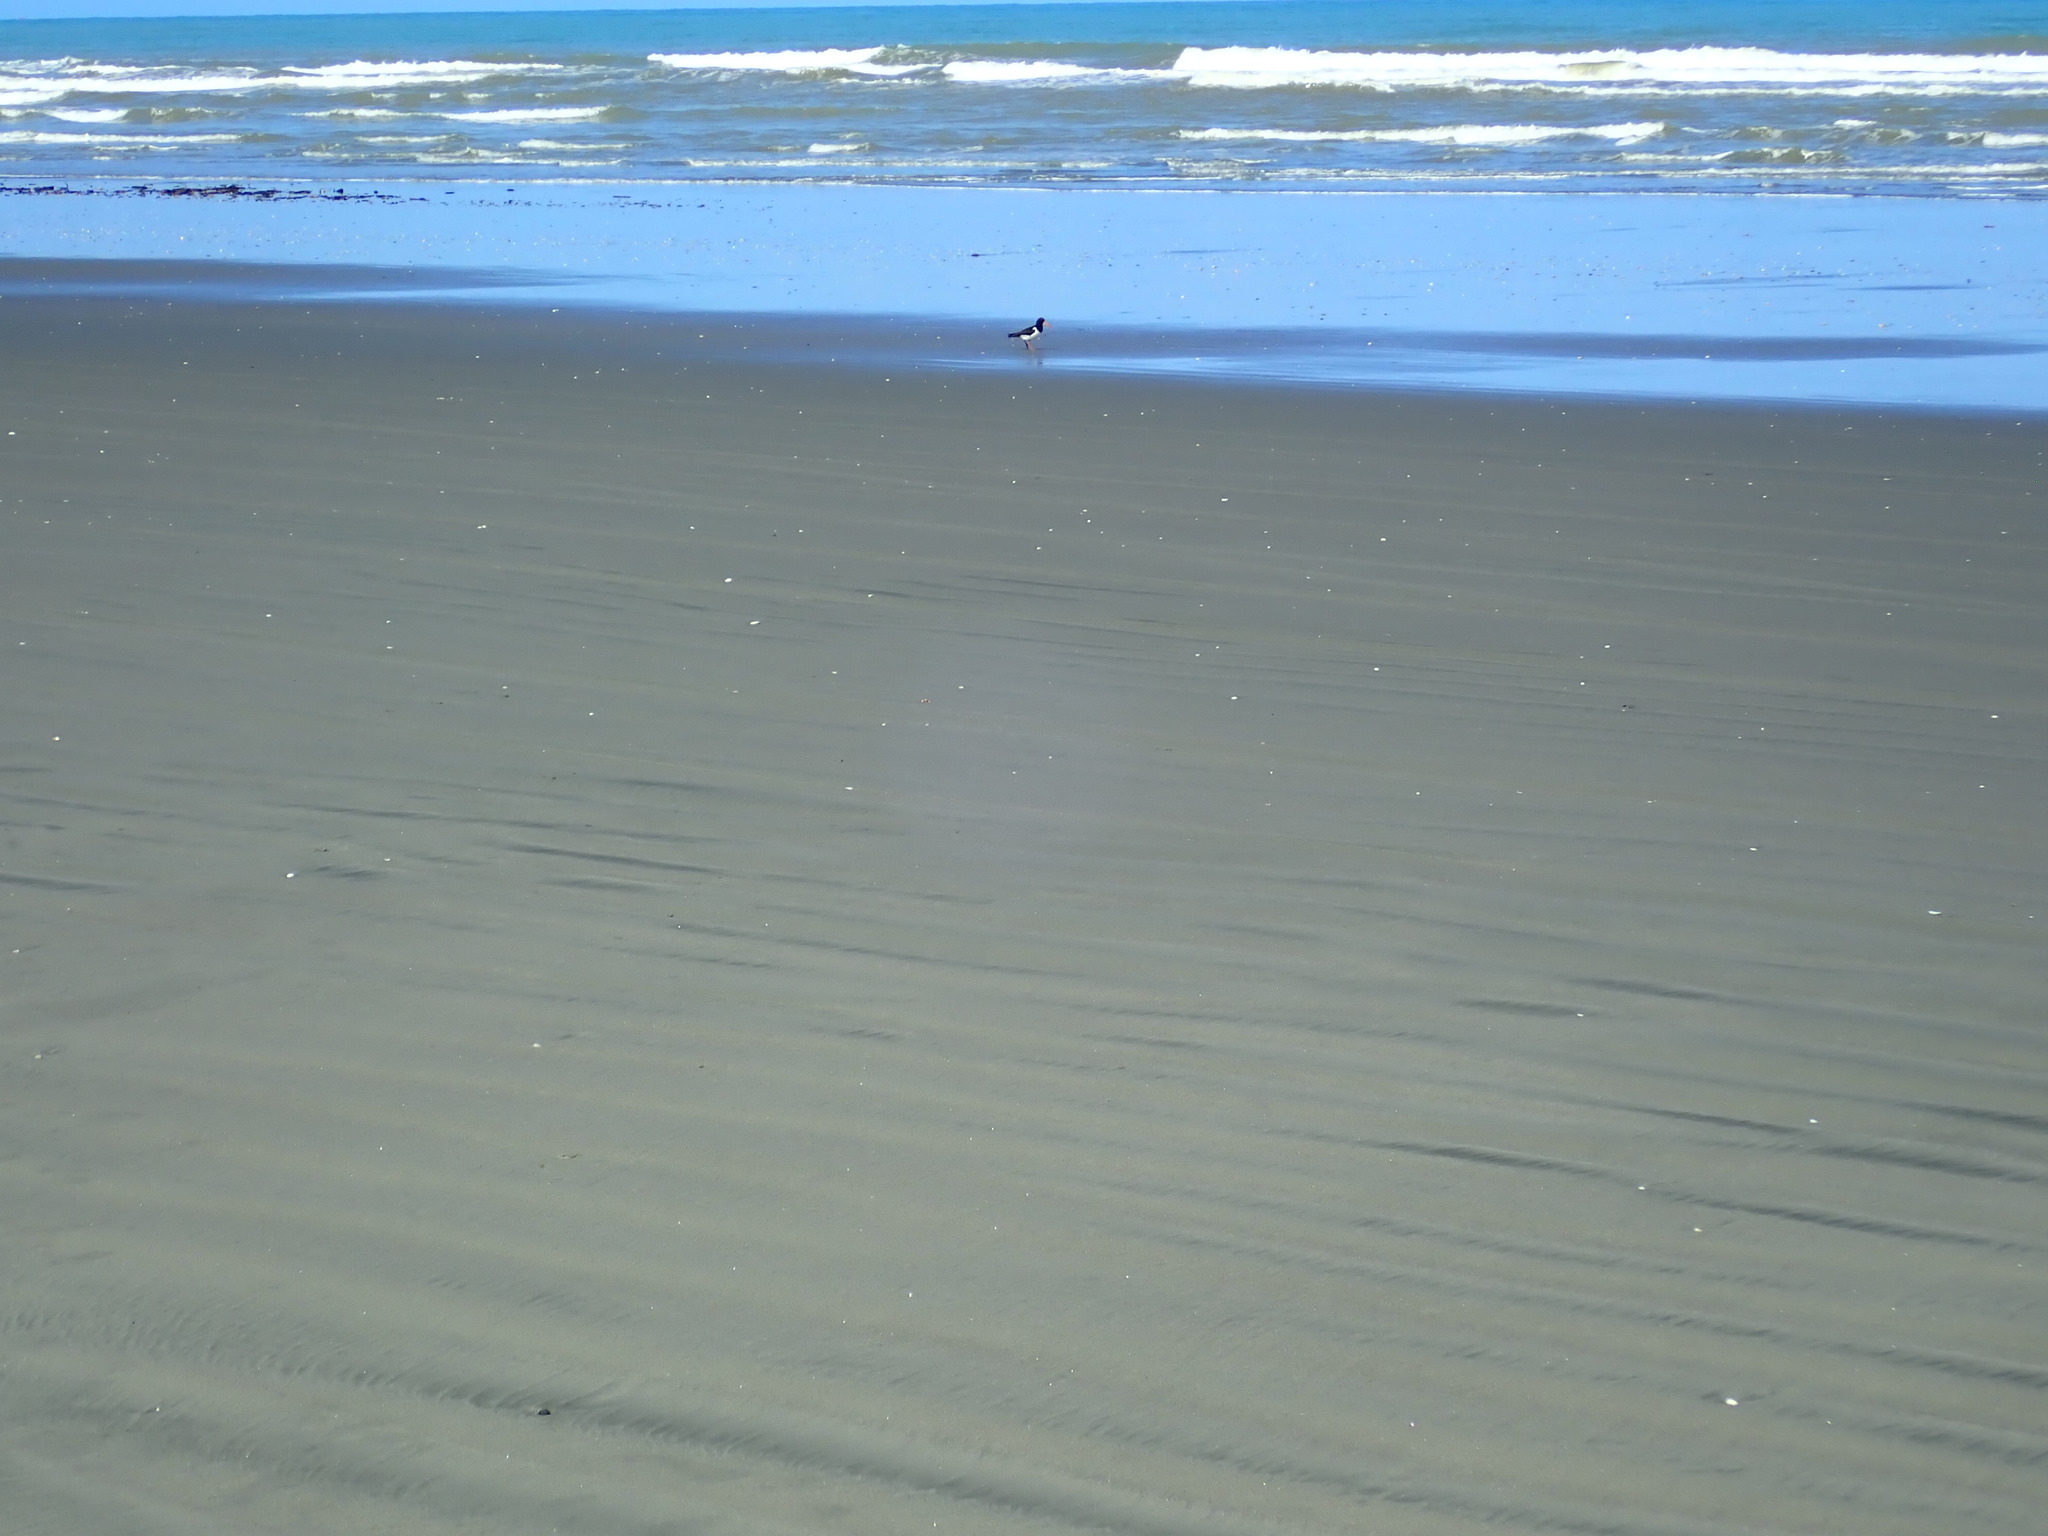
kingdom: Animalia
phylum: Chordata
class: Aves
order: Charadriiformes
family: Haematopodidae
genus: Haematopus
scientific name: Haematopus finschi
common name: South island oystercatcher
